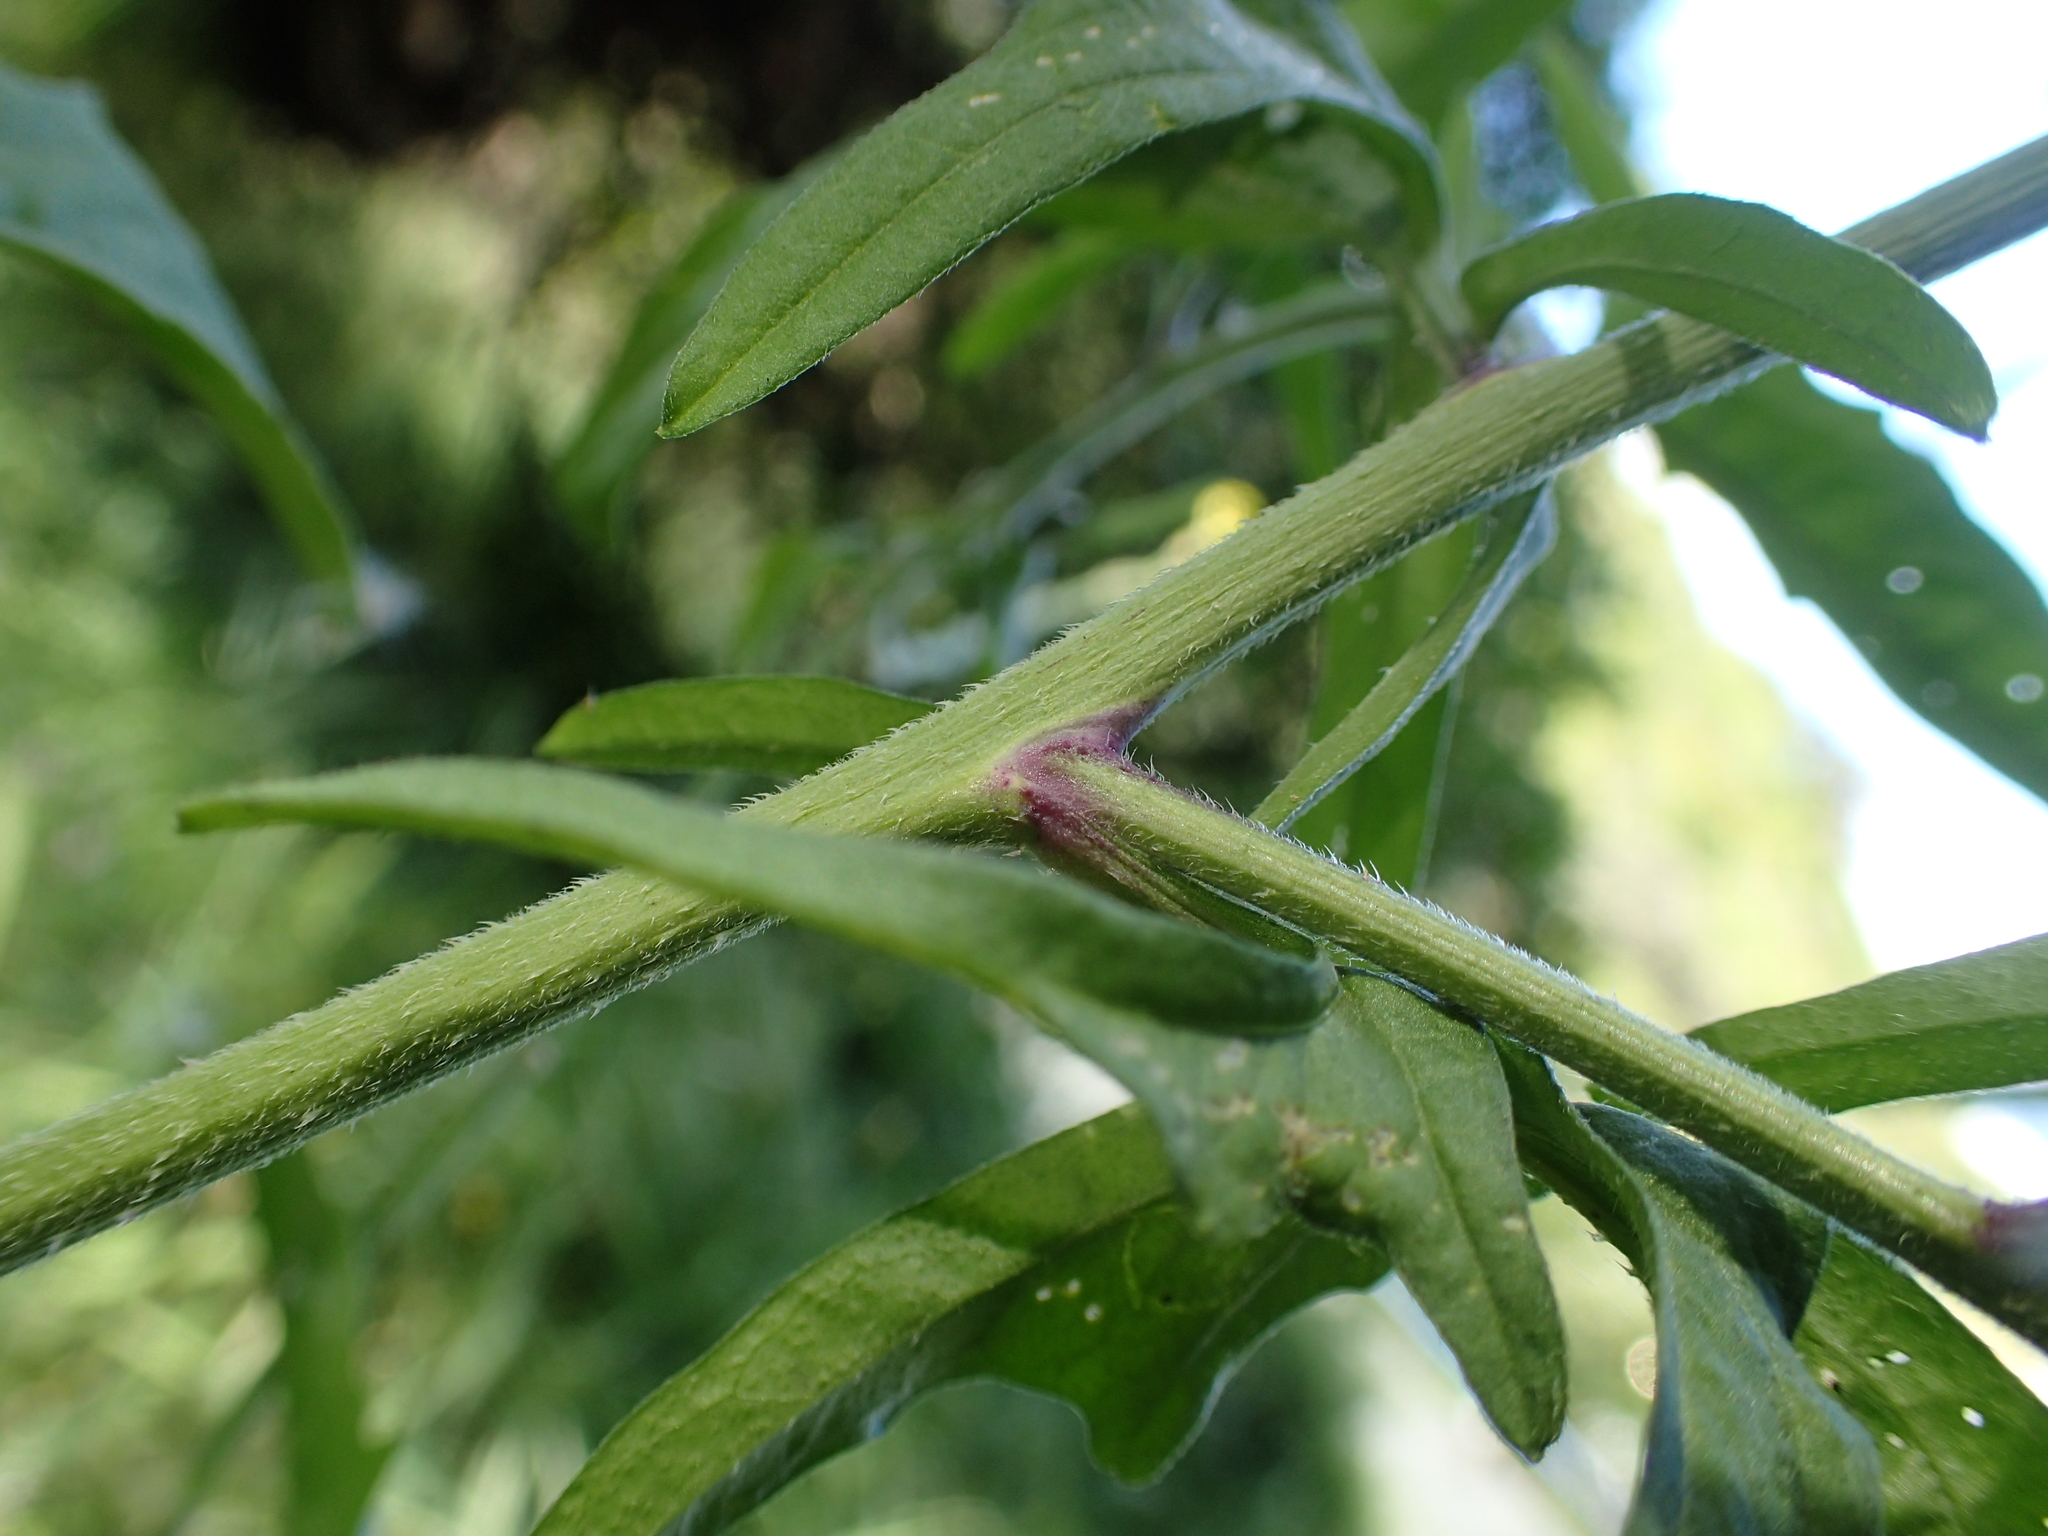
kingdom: Plantae
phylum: Tracheophyta
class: Magnoliopsida
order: Asterales
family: Asteraceae
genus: Sonchus
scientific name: Sonchus oleraceus
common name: Common sowthistle
